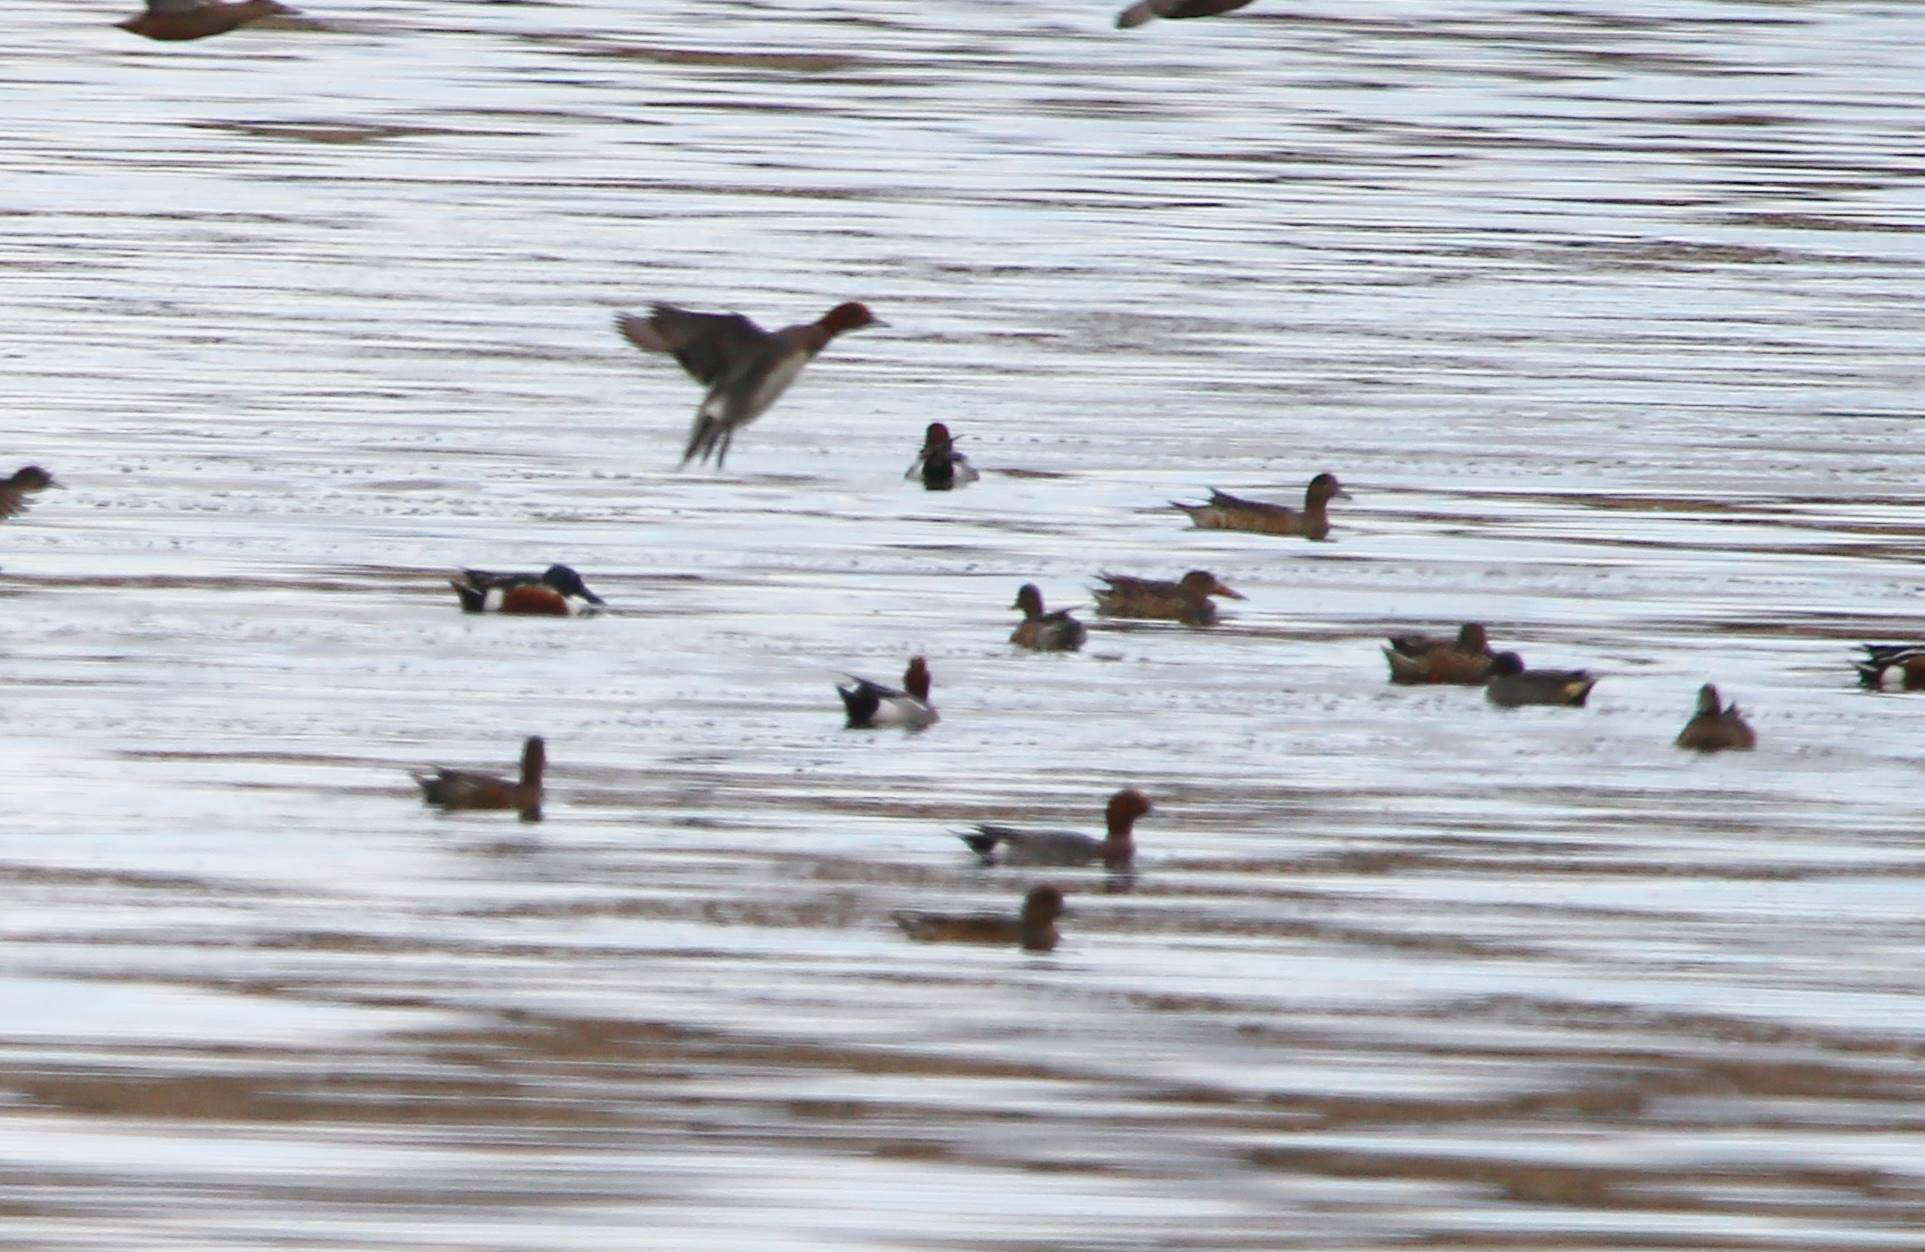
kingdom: Animalia
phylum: Chordata
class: Aves
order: Anseriformes
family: Anatidae
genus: Mareca
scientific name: Mareca penelope
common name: Eurasian wigeon
